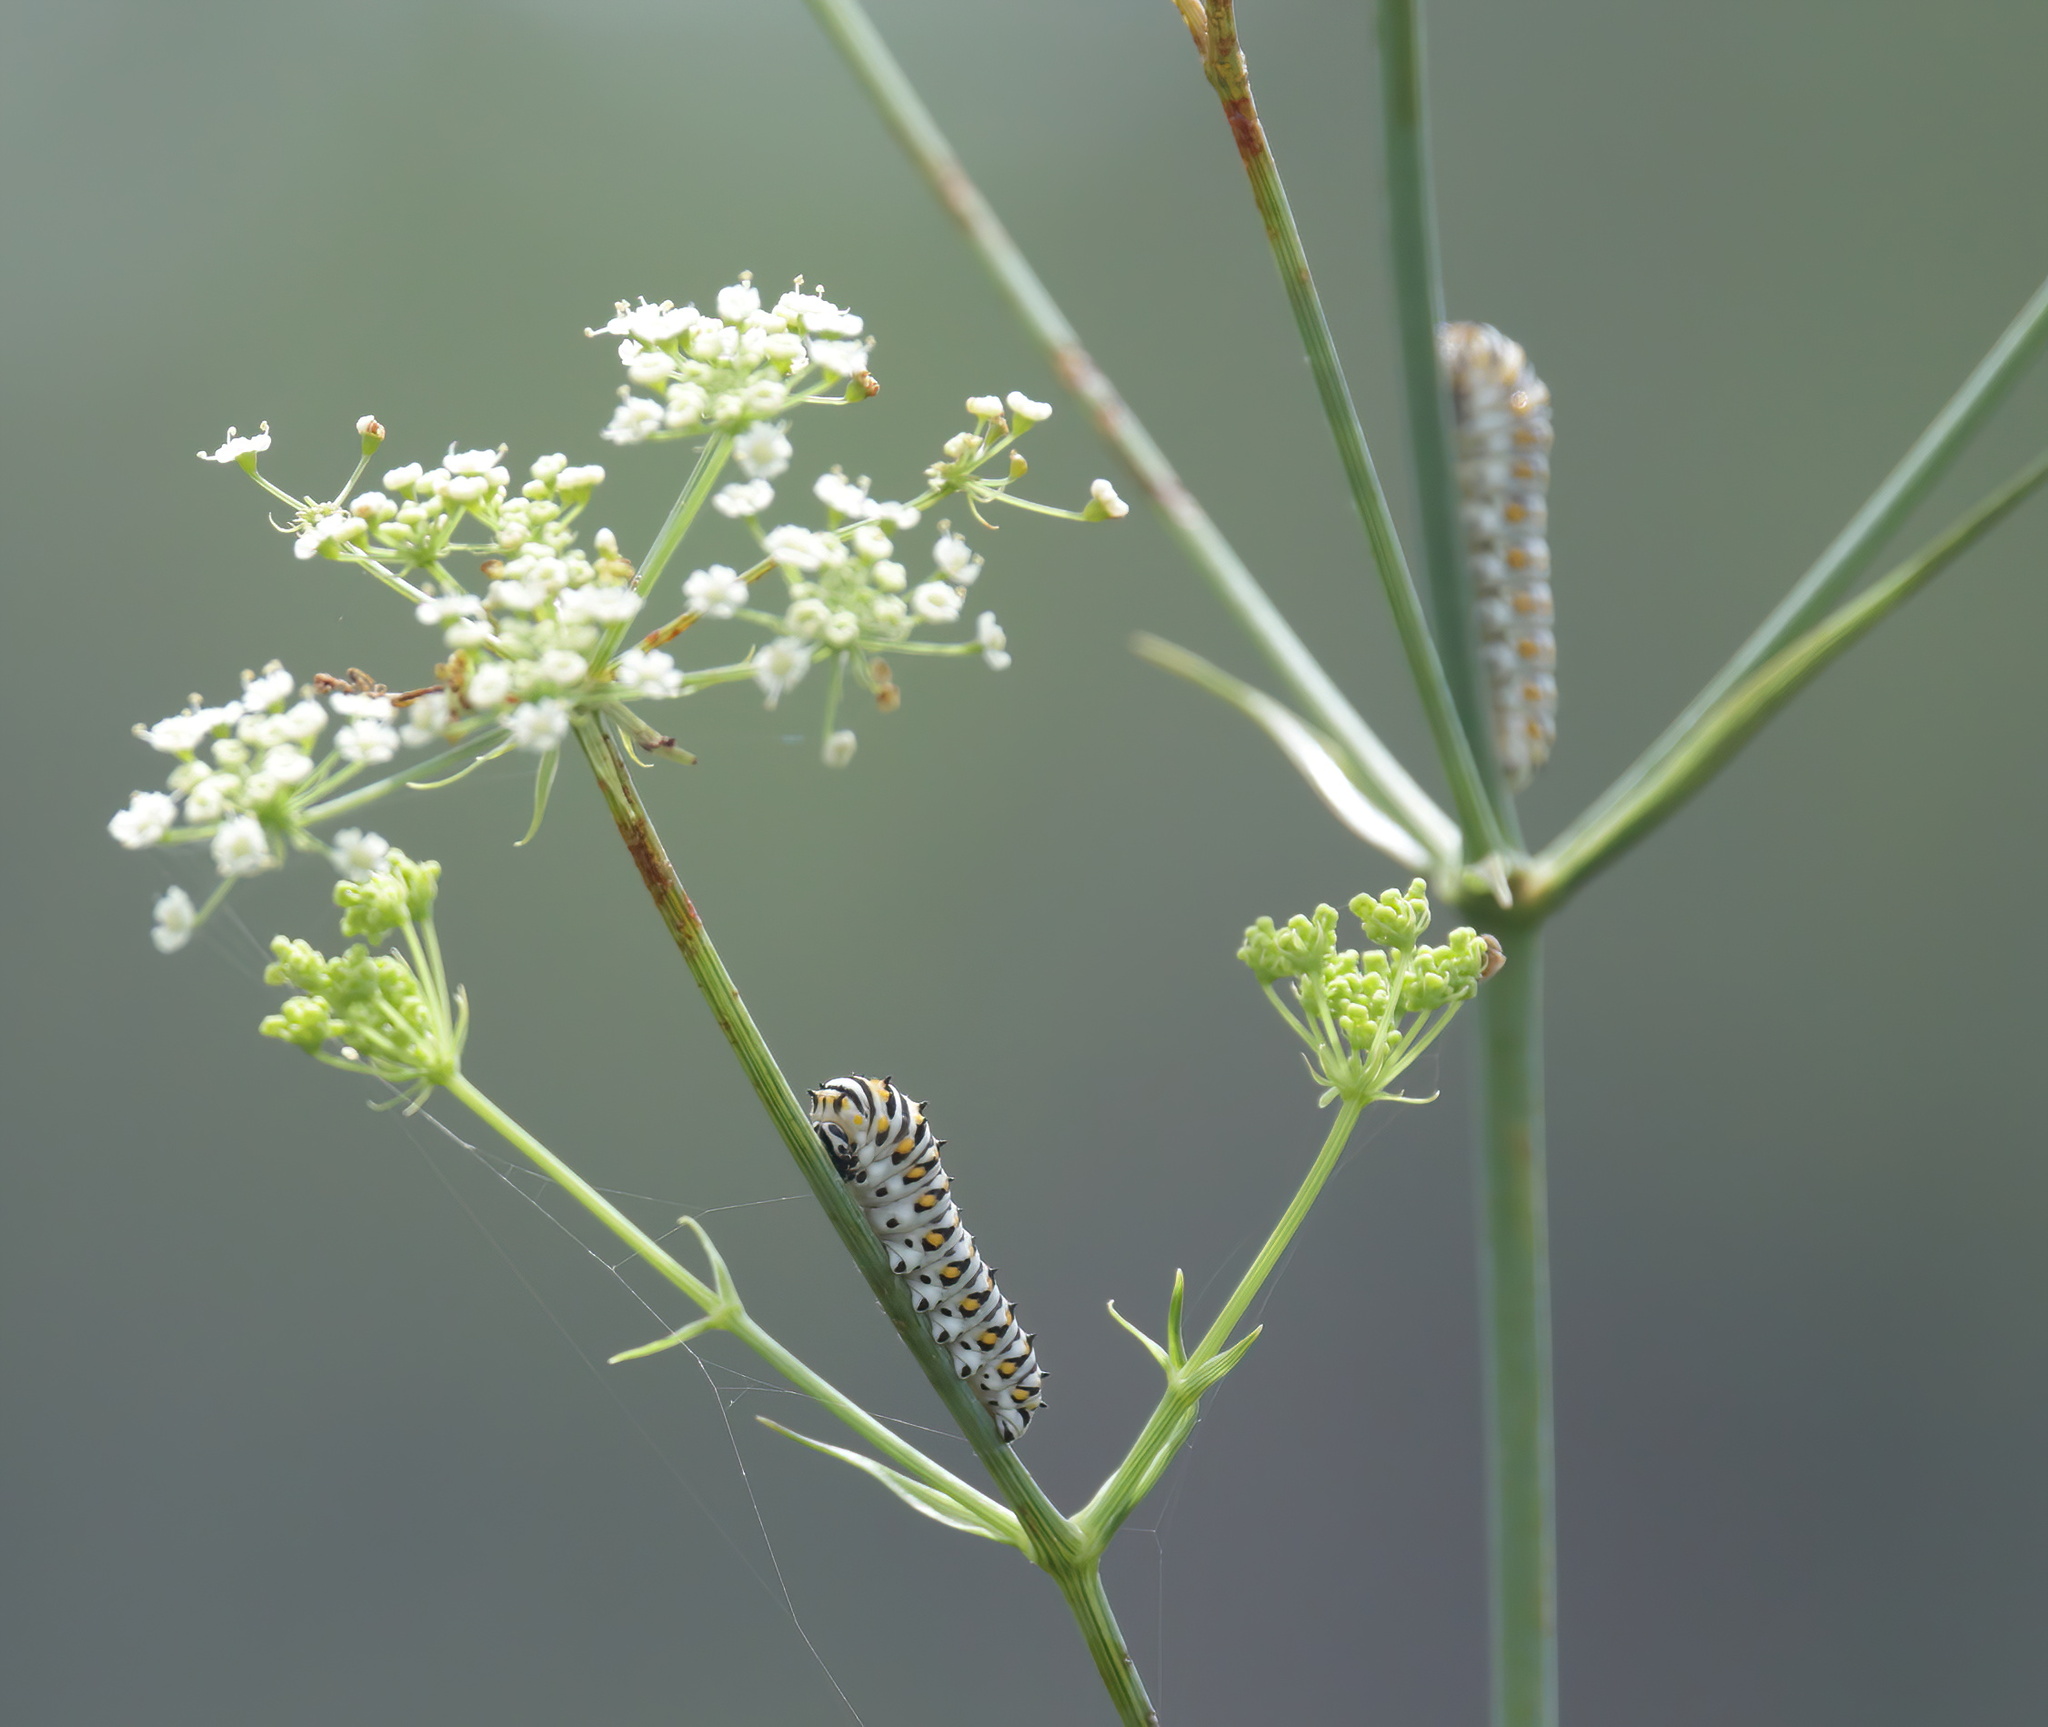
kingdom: Animalia
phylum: Arthropoda
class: Insecta
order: Lepidoptera
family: Papilionidae
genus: Papilio
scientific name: Papilio polyxenes
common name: Black swallowtail
